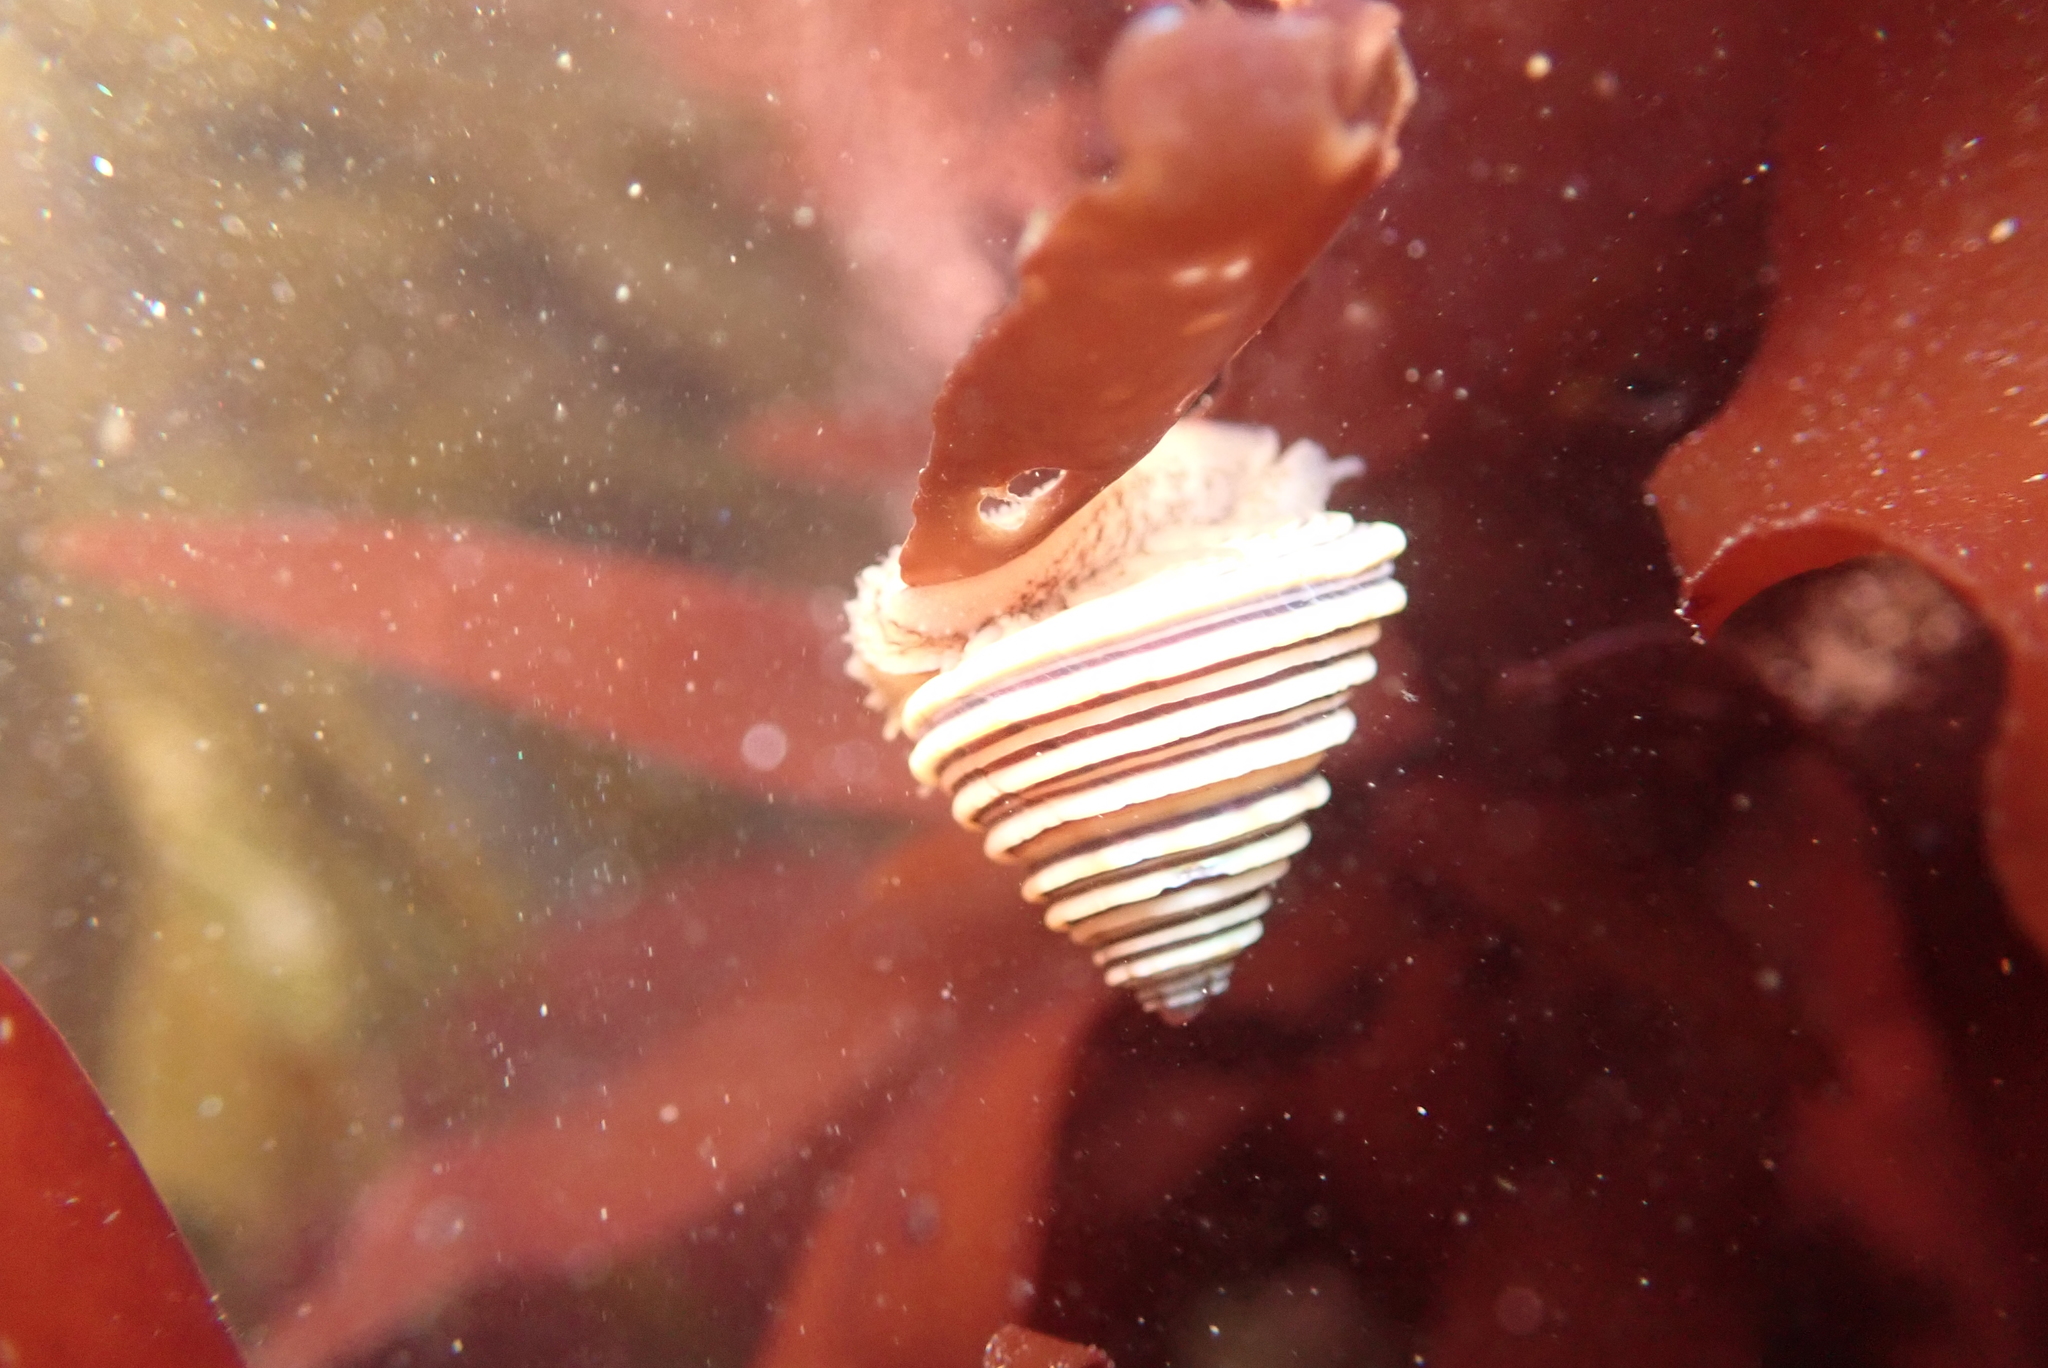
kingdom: Animalia
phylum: Mollusca
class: Gastropoda
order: Trochida
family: Calliostomatidae
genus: Calliostoma
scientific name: Calliostoma canaliculatum
